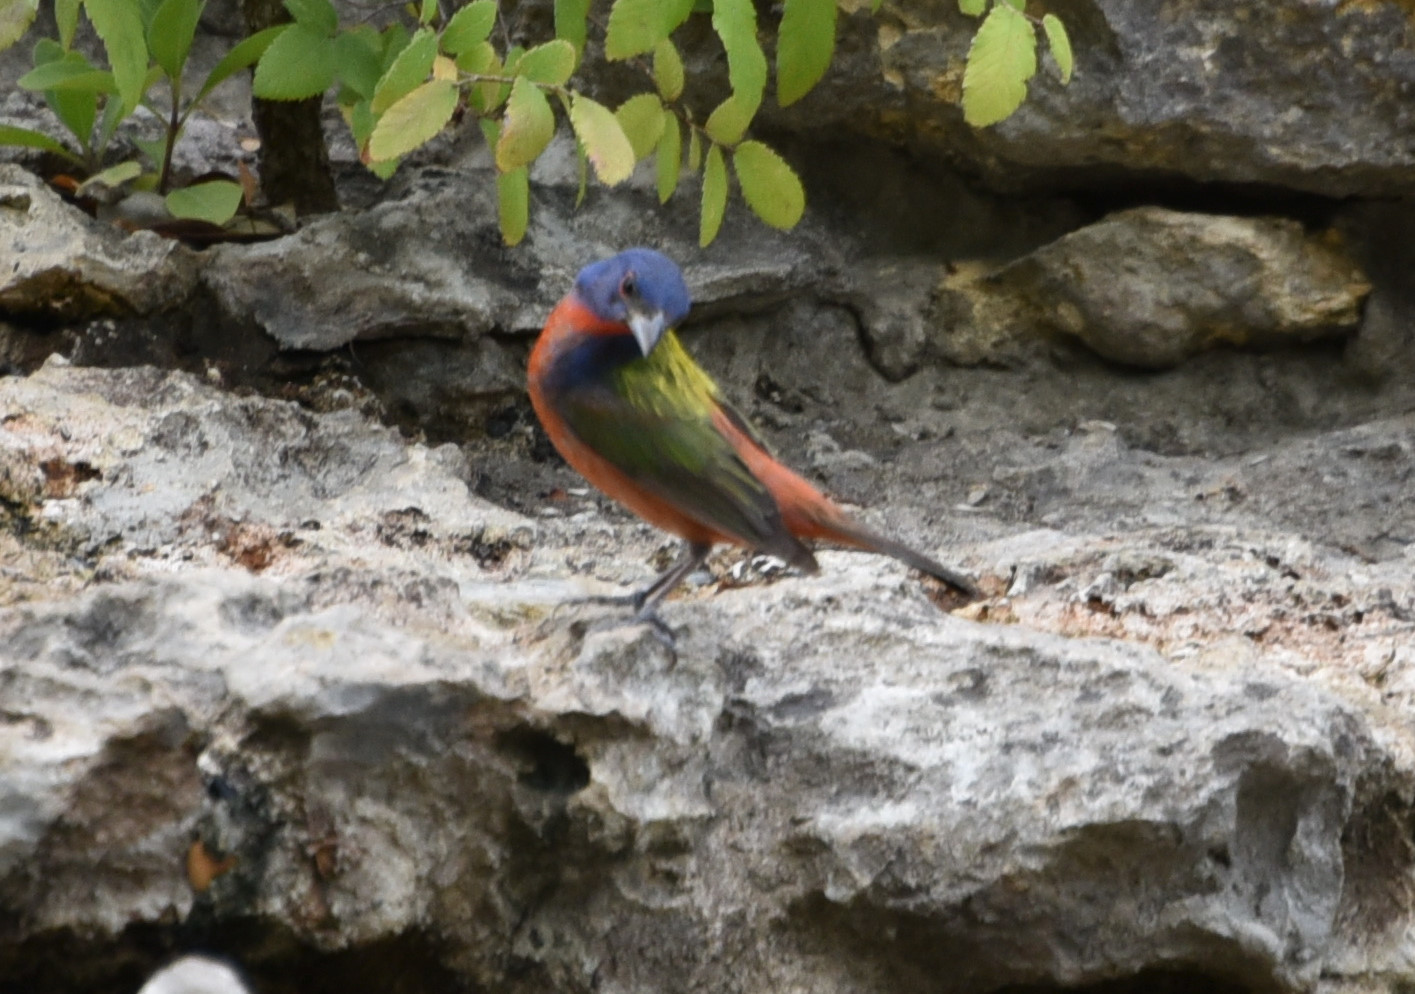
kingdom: Animalia
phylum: Chordata
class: Aves
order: Passeriformes
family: Cardinalidae
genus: Passerina
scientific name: Passerina ciris
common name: Painted bunting
